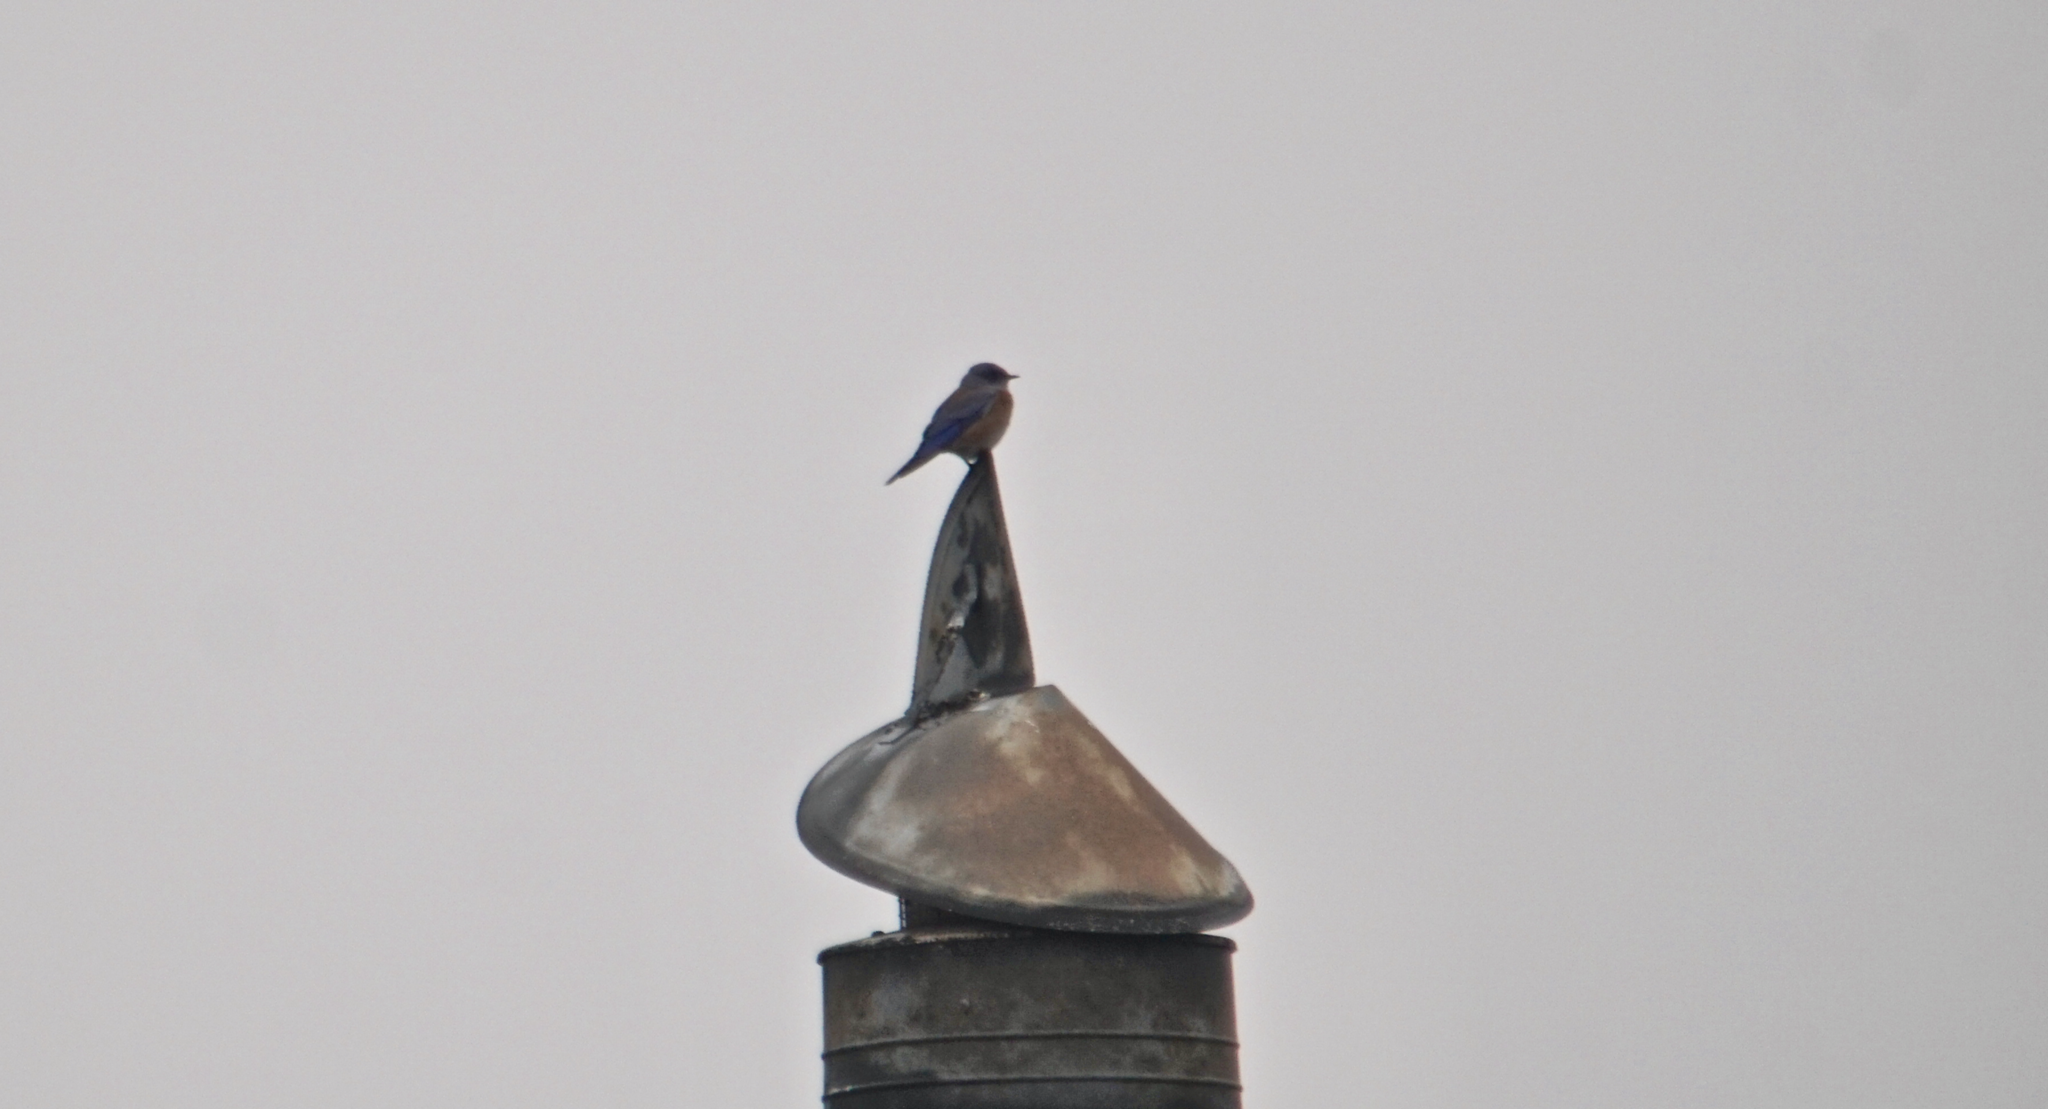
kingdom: Animalia
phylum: Chordata
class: Aves
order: Passeriformes
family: Turdidae
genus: Sialia
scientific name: Sialia mexicana
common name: Western bluebird
